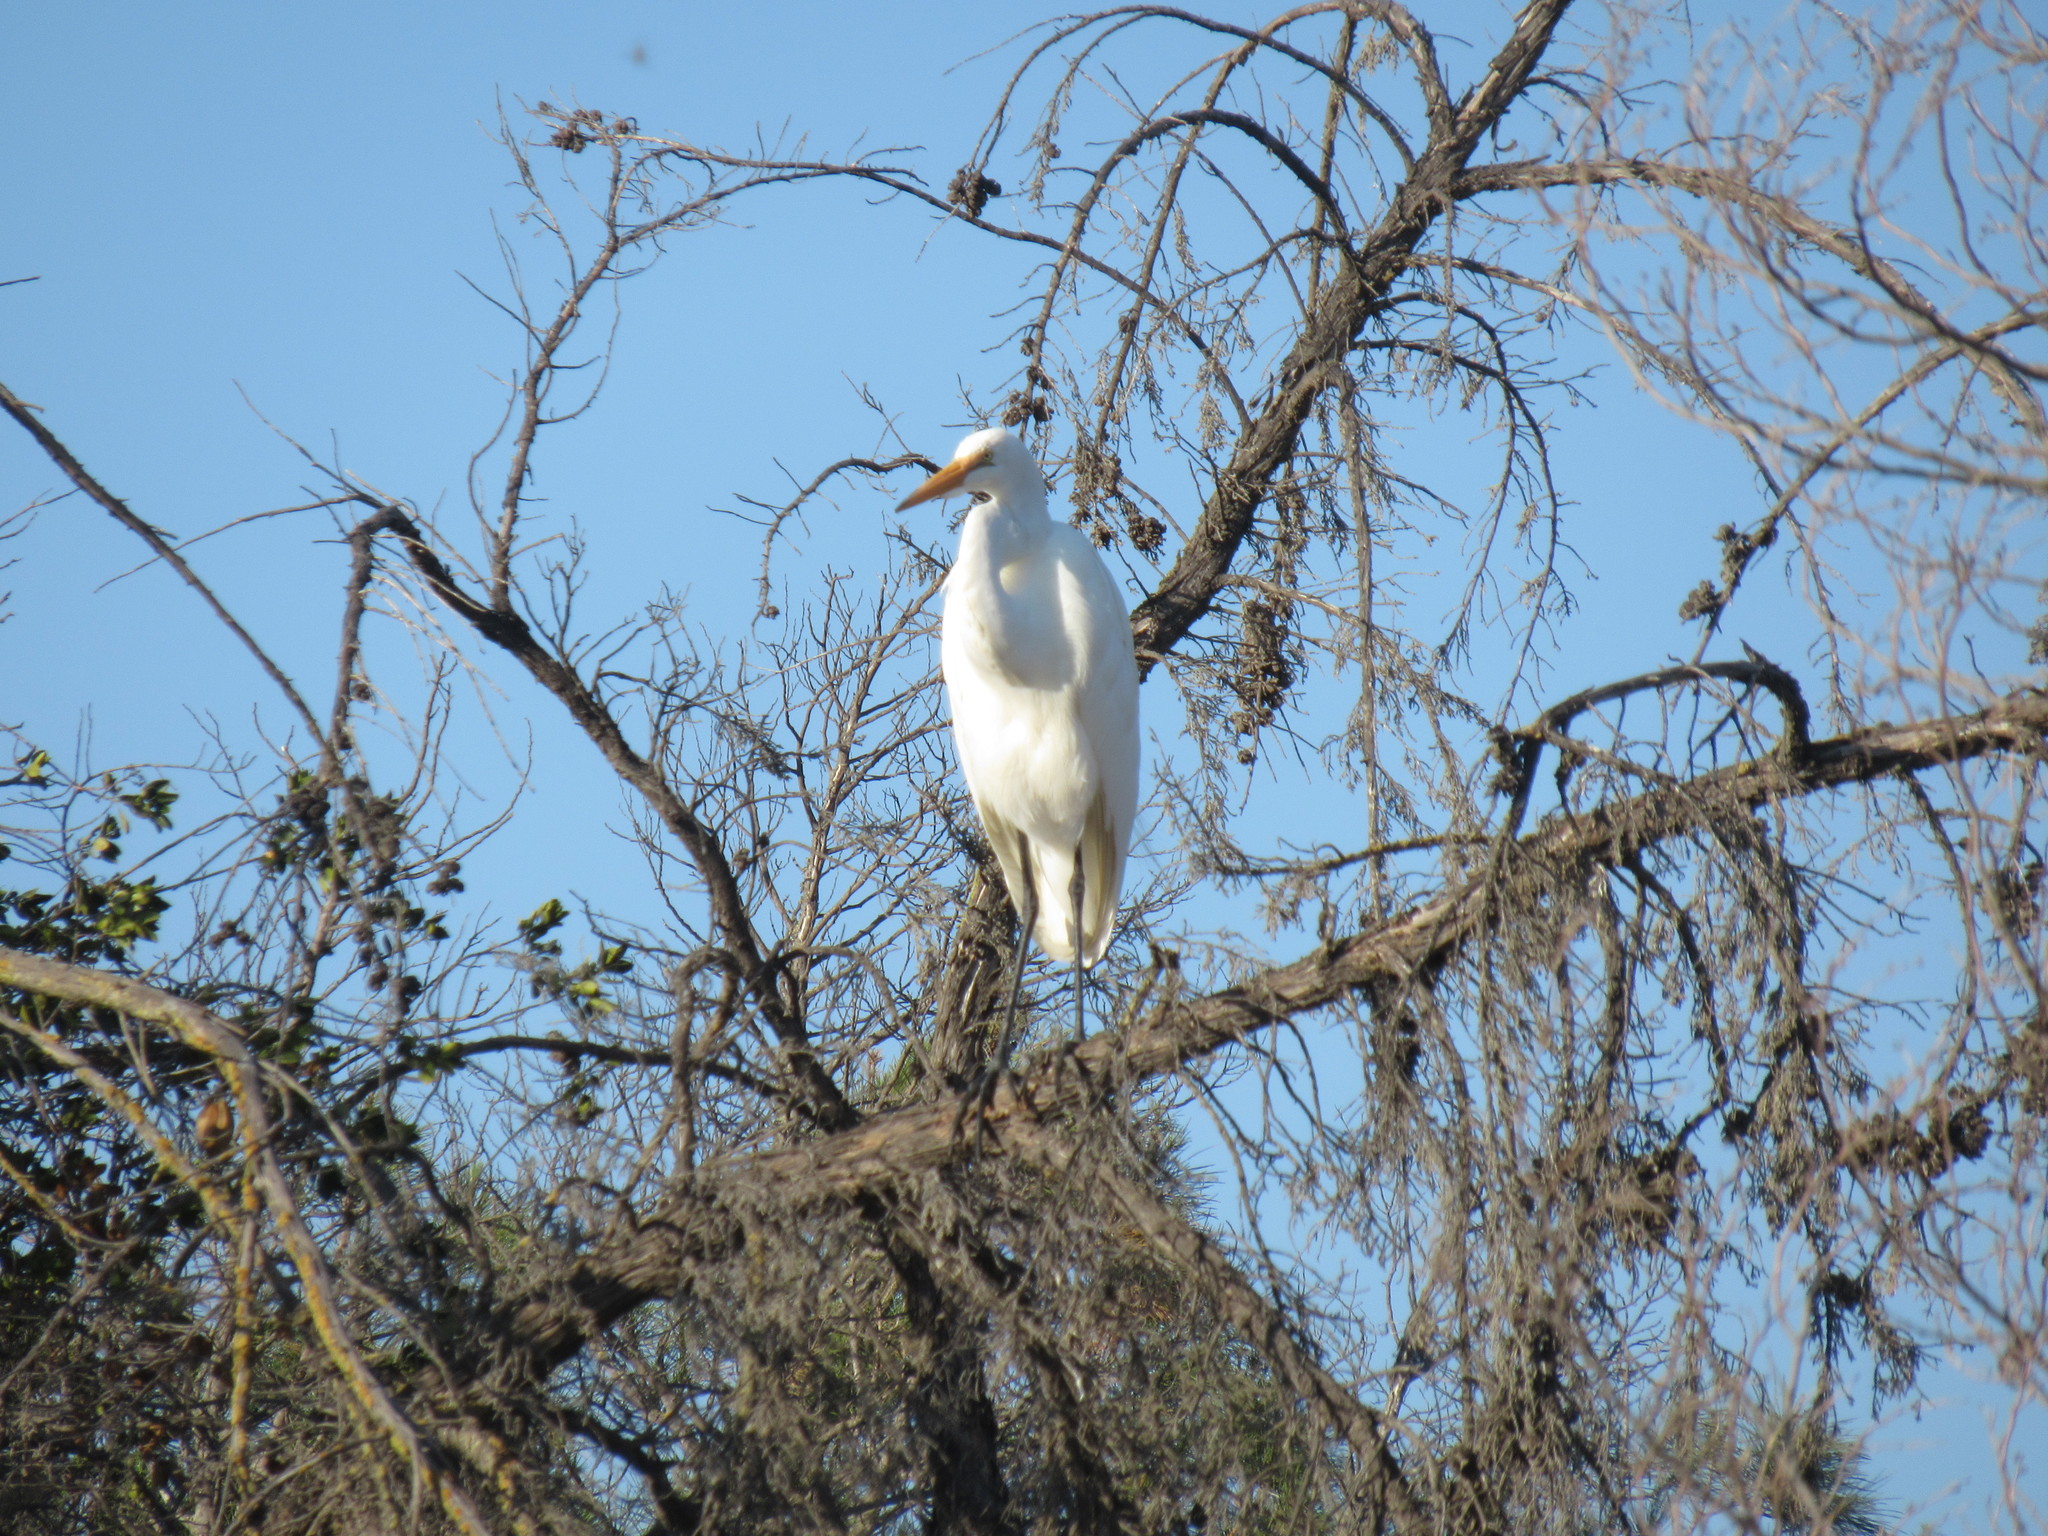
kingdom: Animalia
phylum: Chordata
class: Aves
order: Pelecaniformes
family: Ardeidae
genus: Ardea
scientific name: Ardea alba
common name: Great egret
